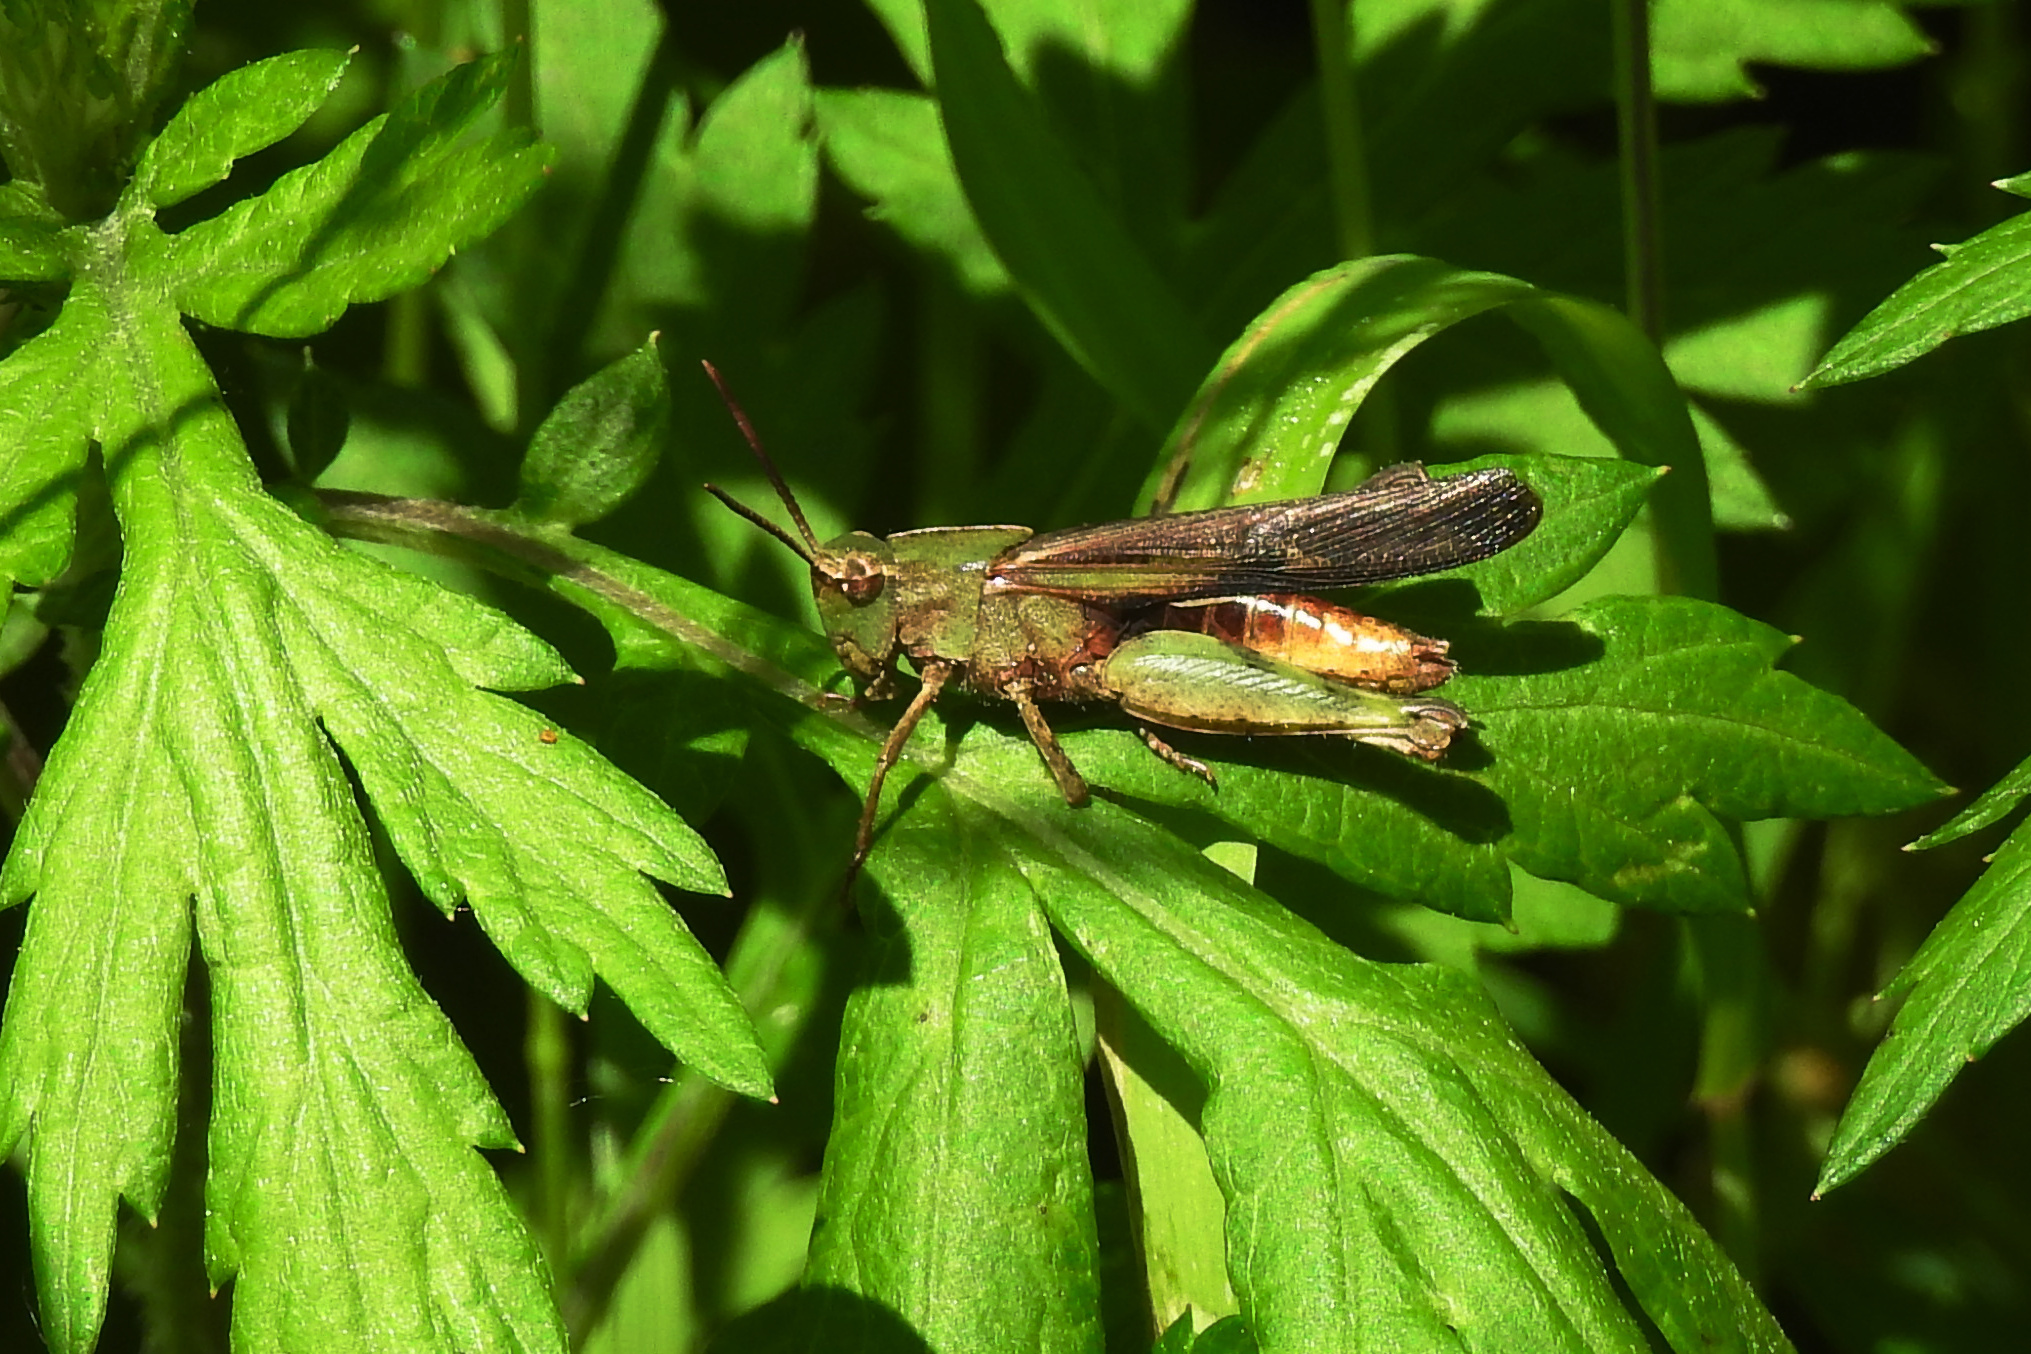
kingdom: Animalia
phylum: Arthropoda
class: Insecta
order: Orthoptera
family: Acrididae
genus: Chortophaga
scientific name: Chortophaga viridifasciata
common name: Green-striped grasshopper
